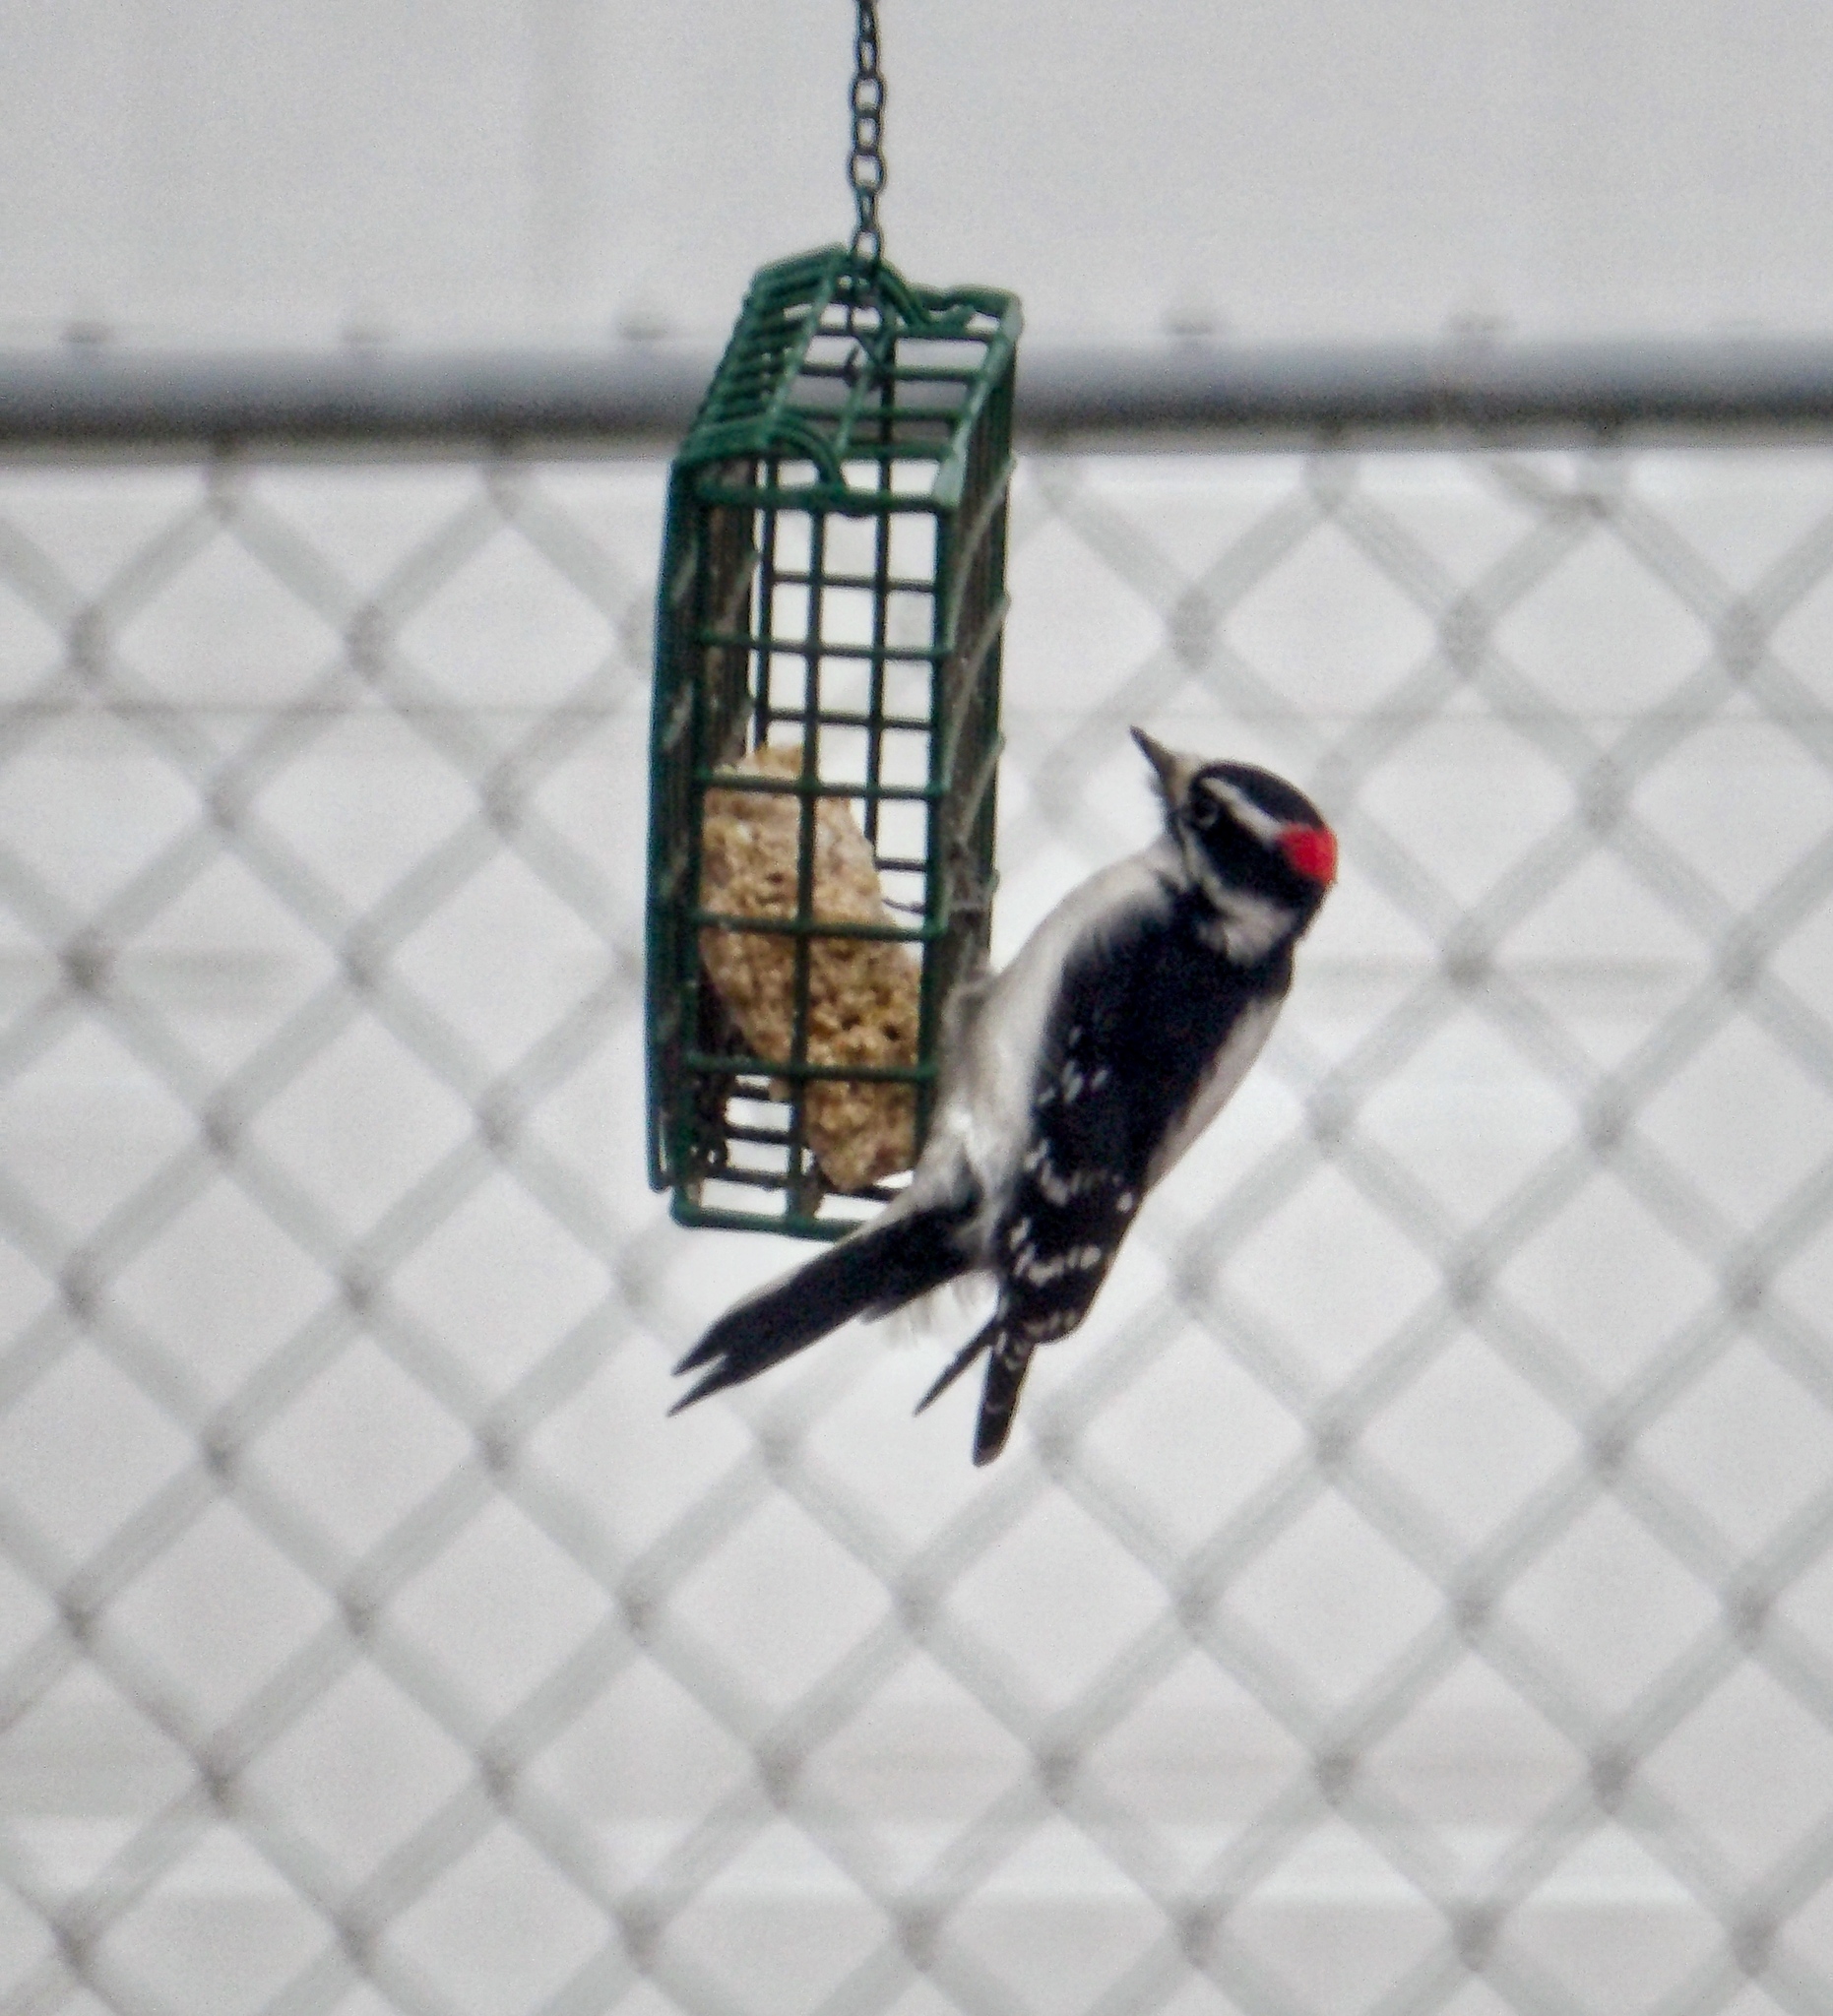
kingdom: Animalia
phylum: Chordata
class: Aves
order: Piciformes
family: Picidae
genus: Dryobates
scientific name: Dryobates pubescens
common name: Downy woodpecker
